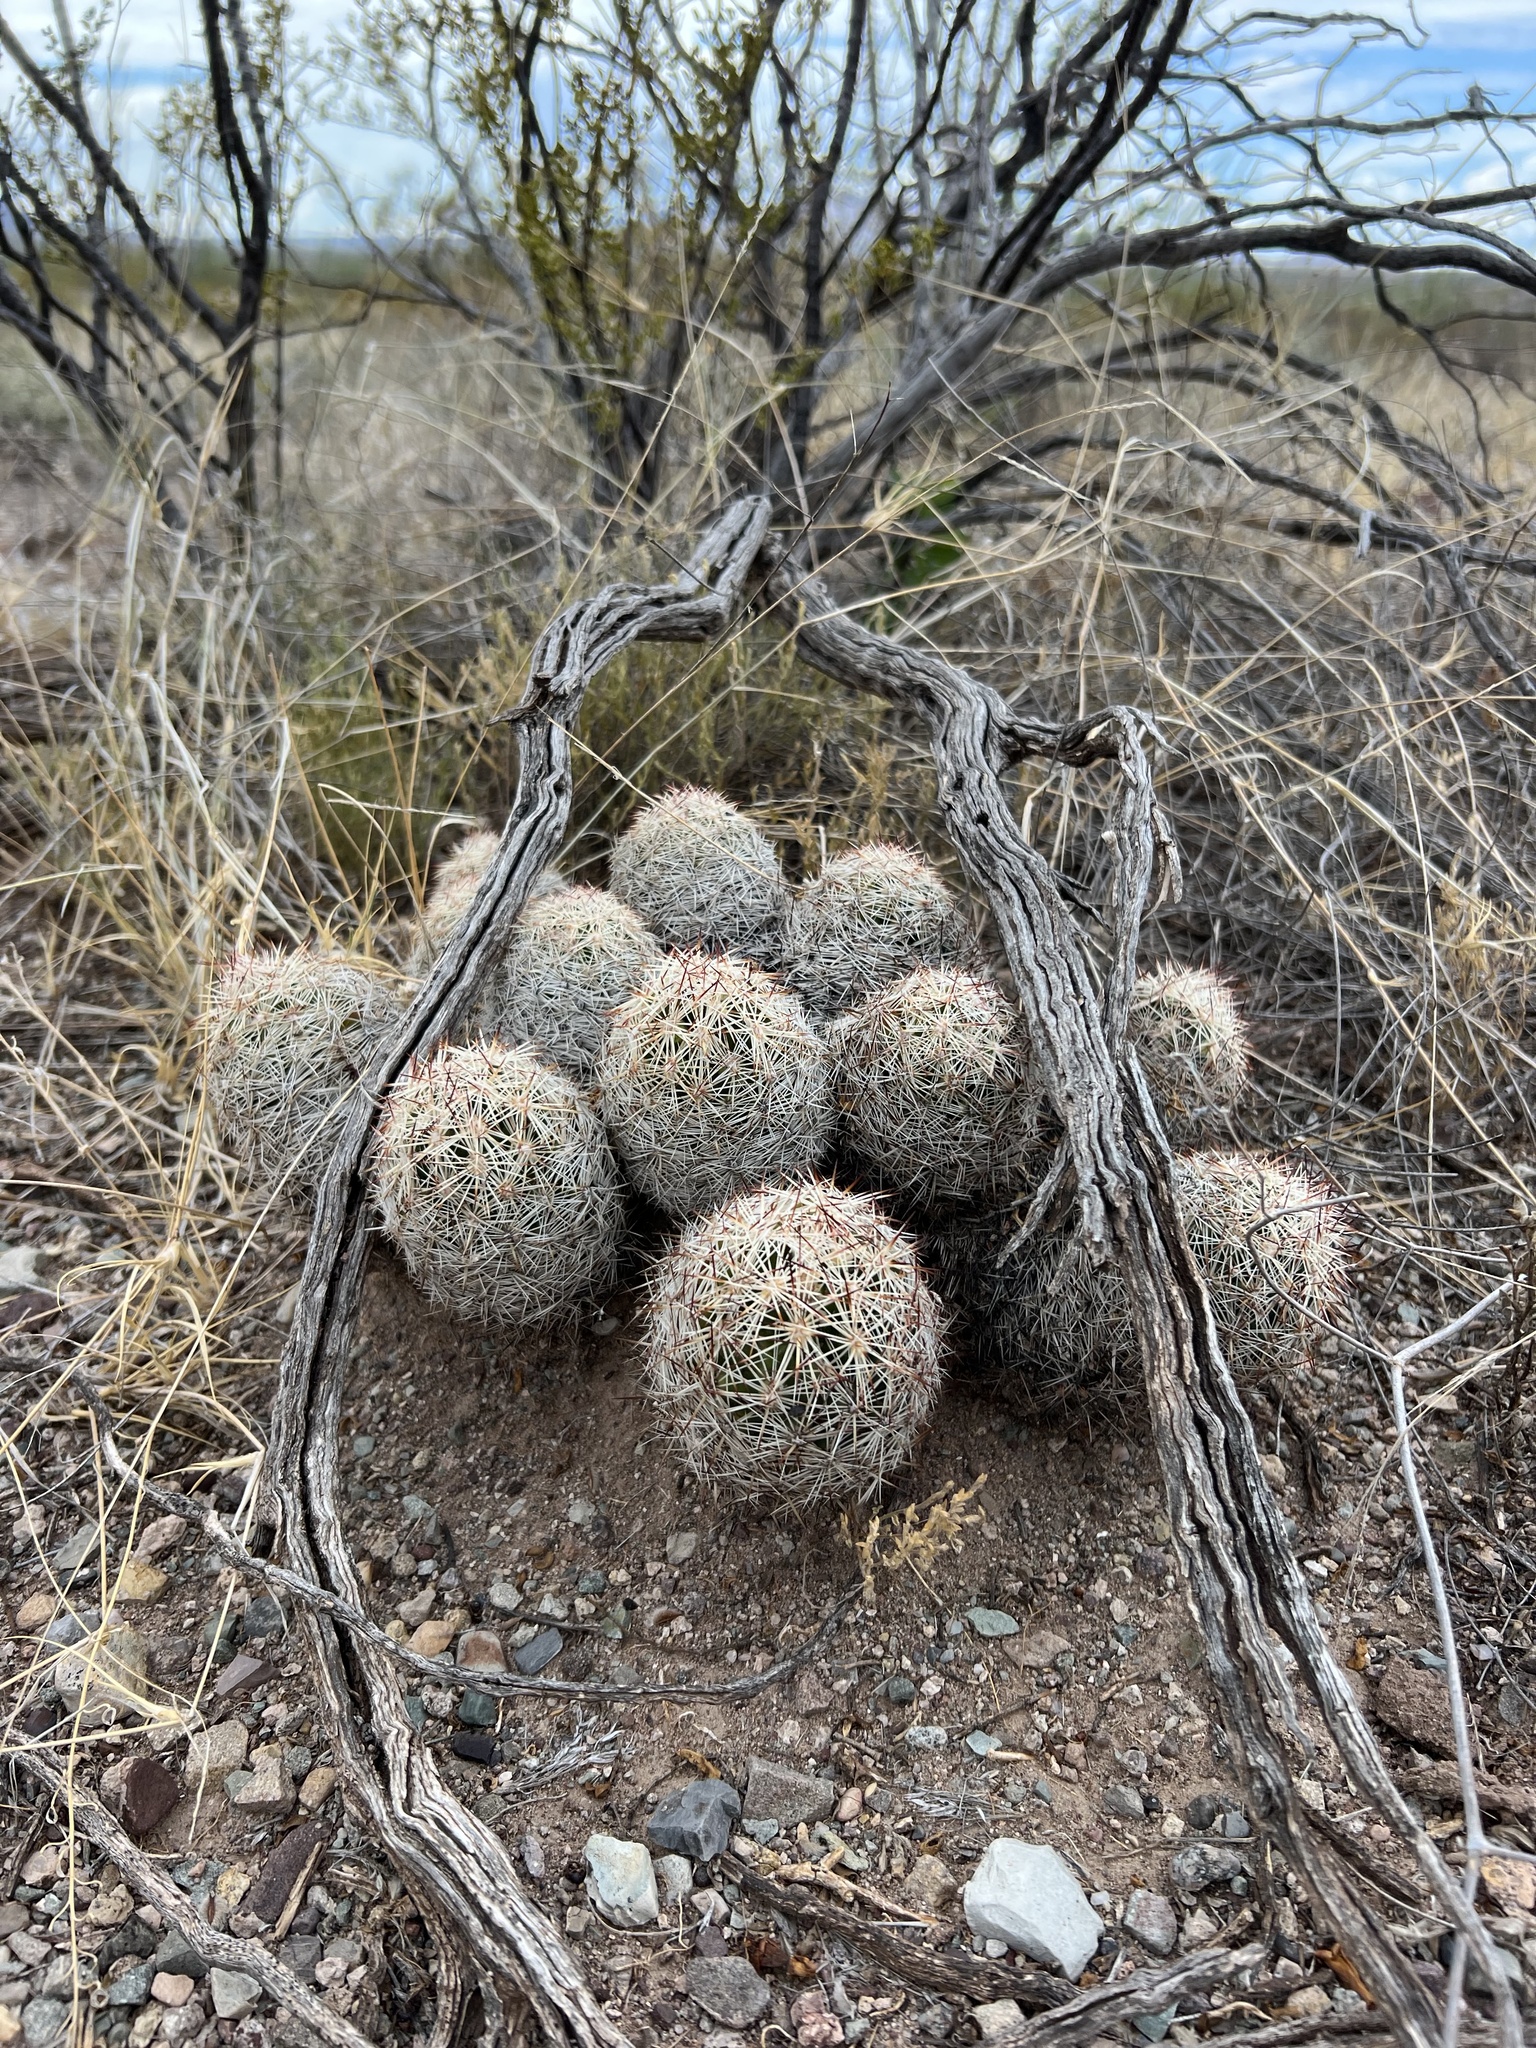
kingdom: Plantae
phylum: Tracheophyta
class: Magnoliopsida
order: Caryophyllales
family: Cactaceae
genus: Pelecyphora
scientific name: Pelecyphora vivipara
